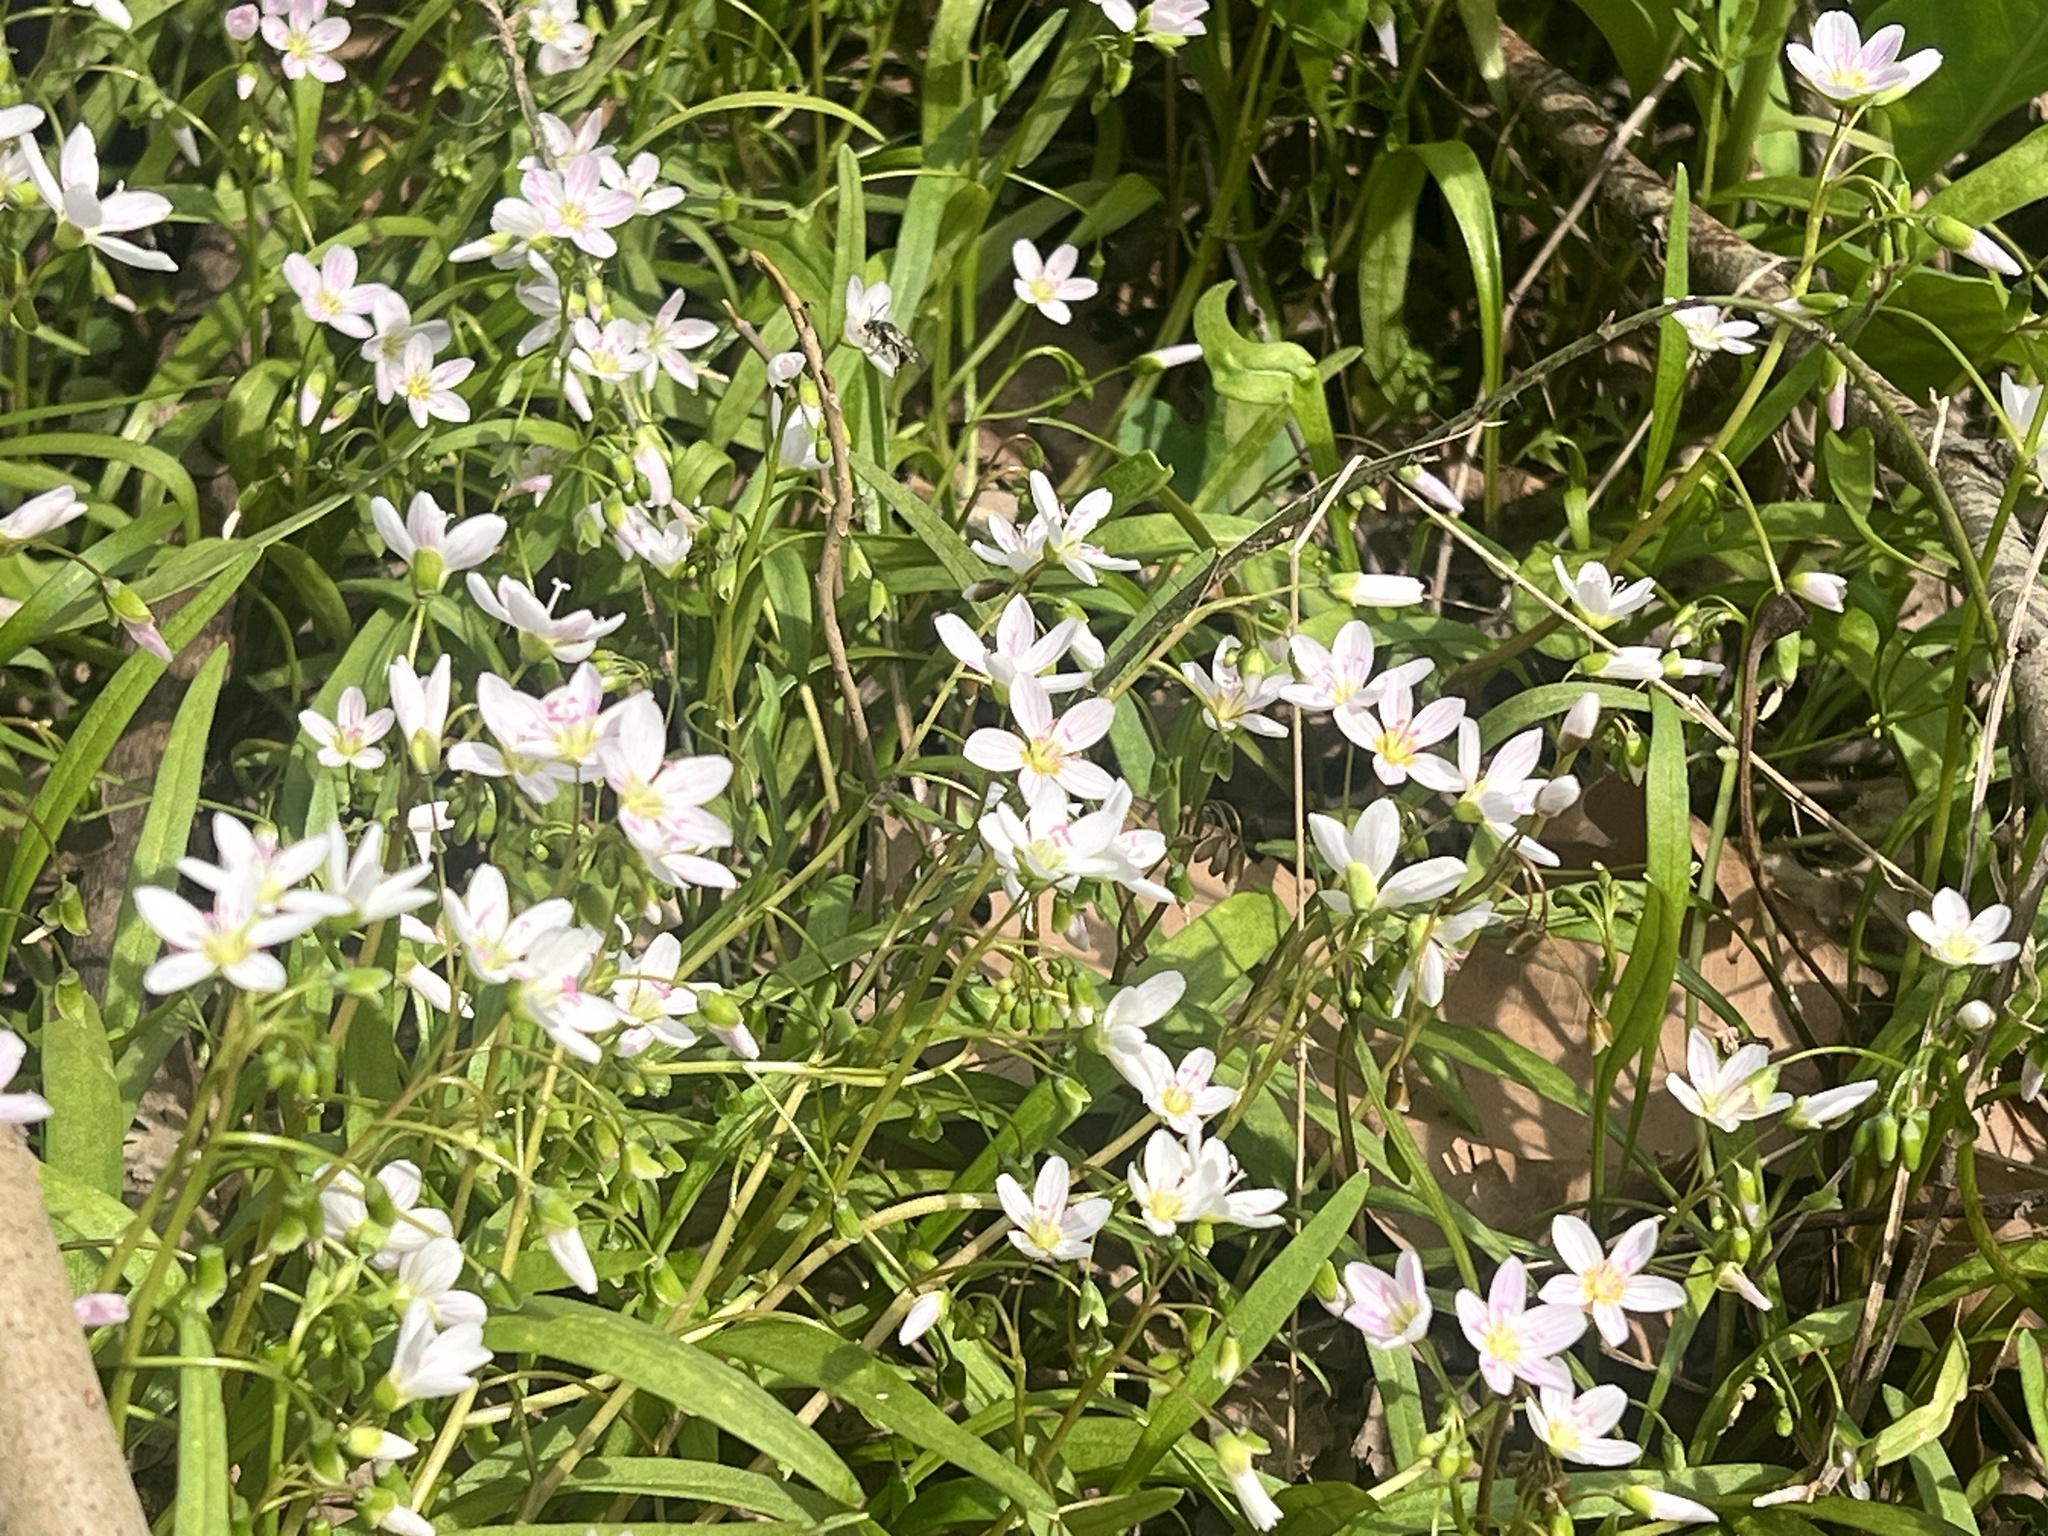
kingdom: Plantae
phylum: Tracheophyta
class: Magnoliopsida
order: Caryophyllales
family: Montiaceae
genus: Claytonia
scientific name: Claytonia virginica
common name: Virginia springbeauty
